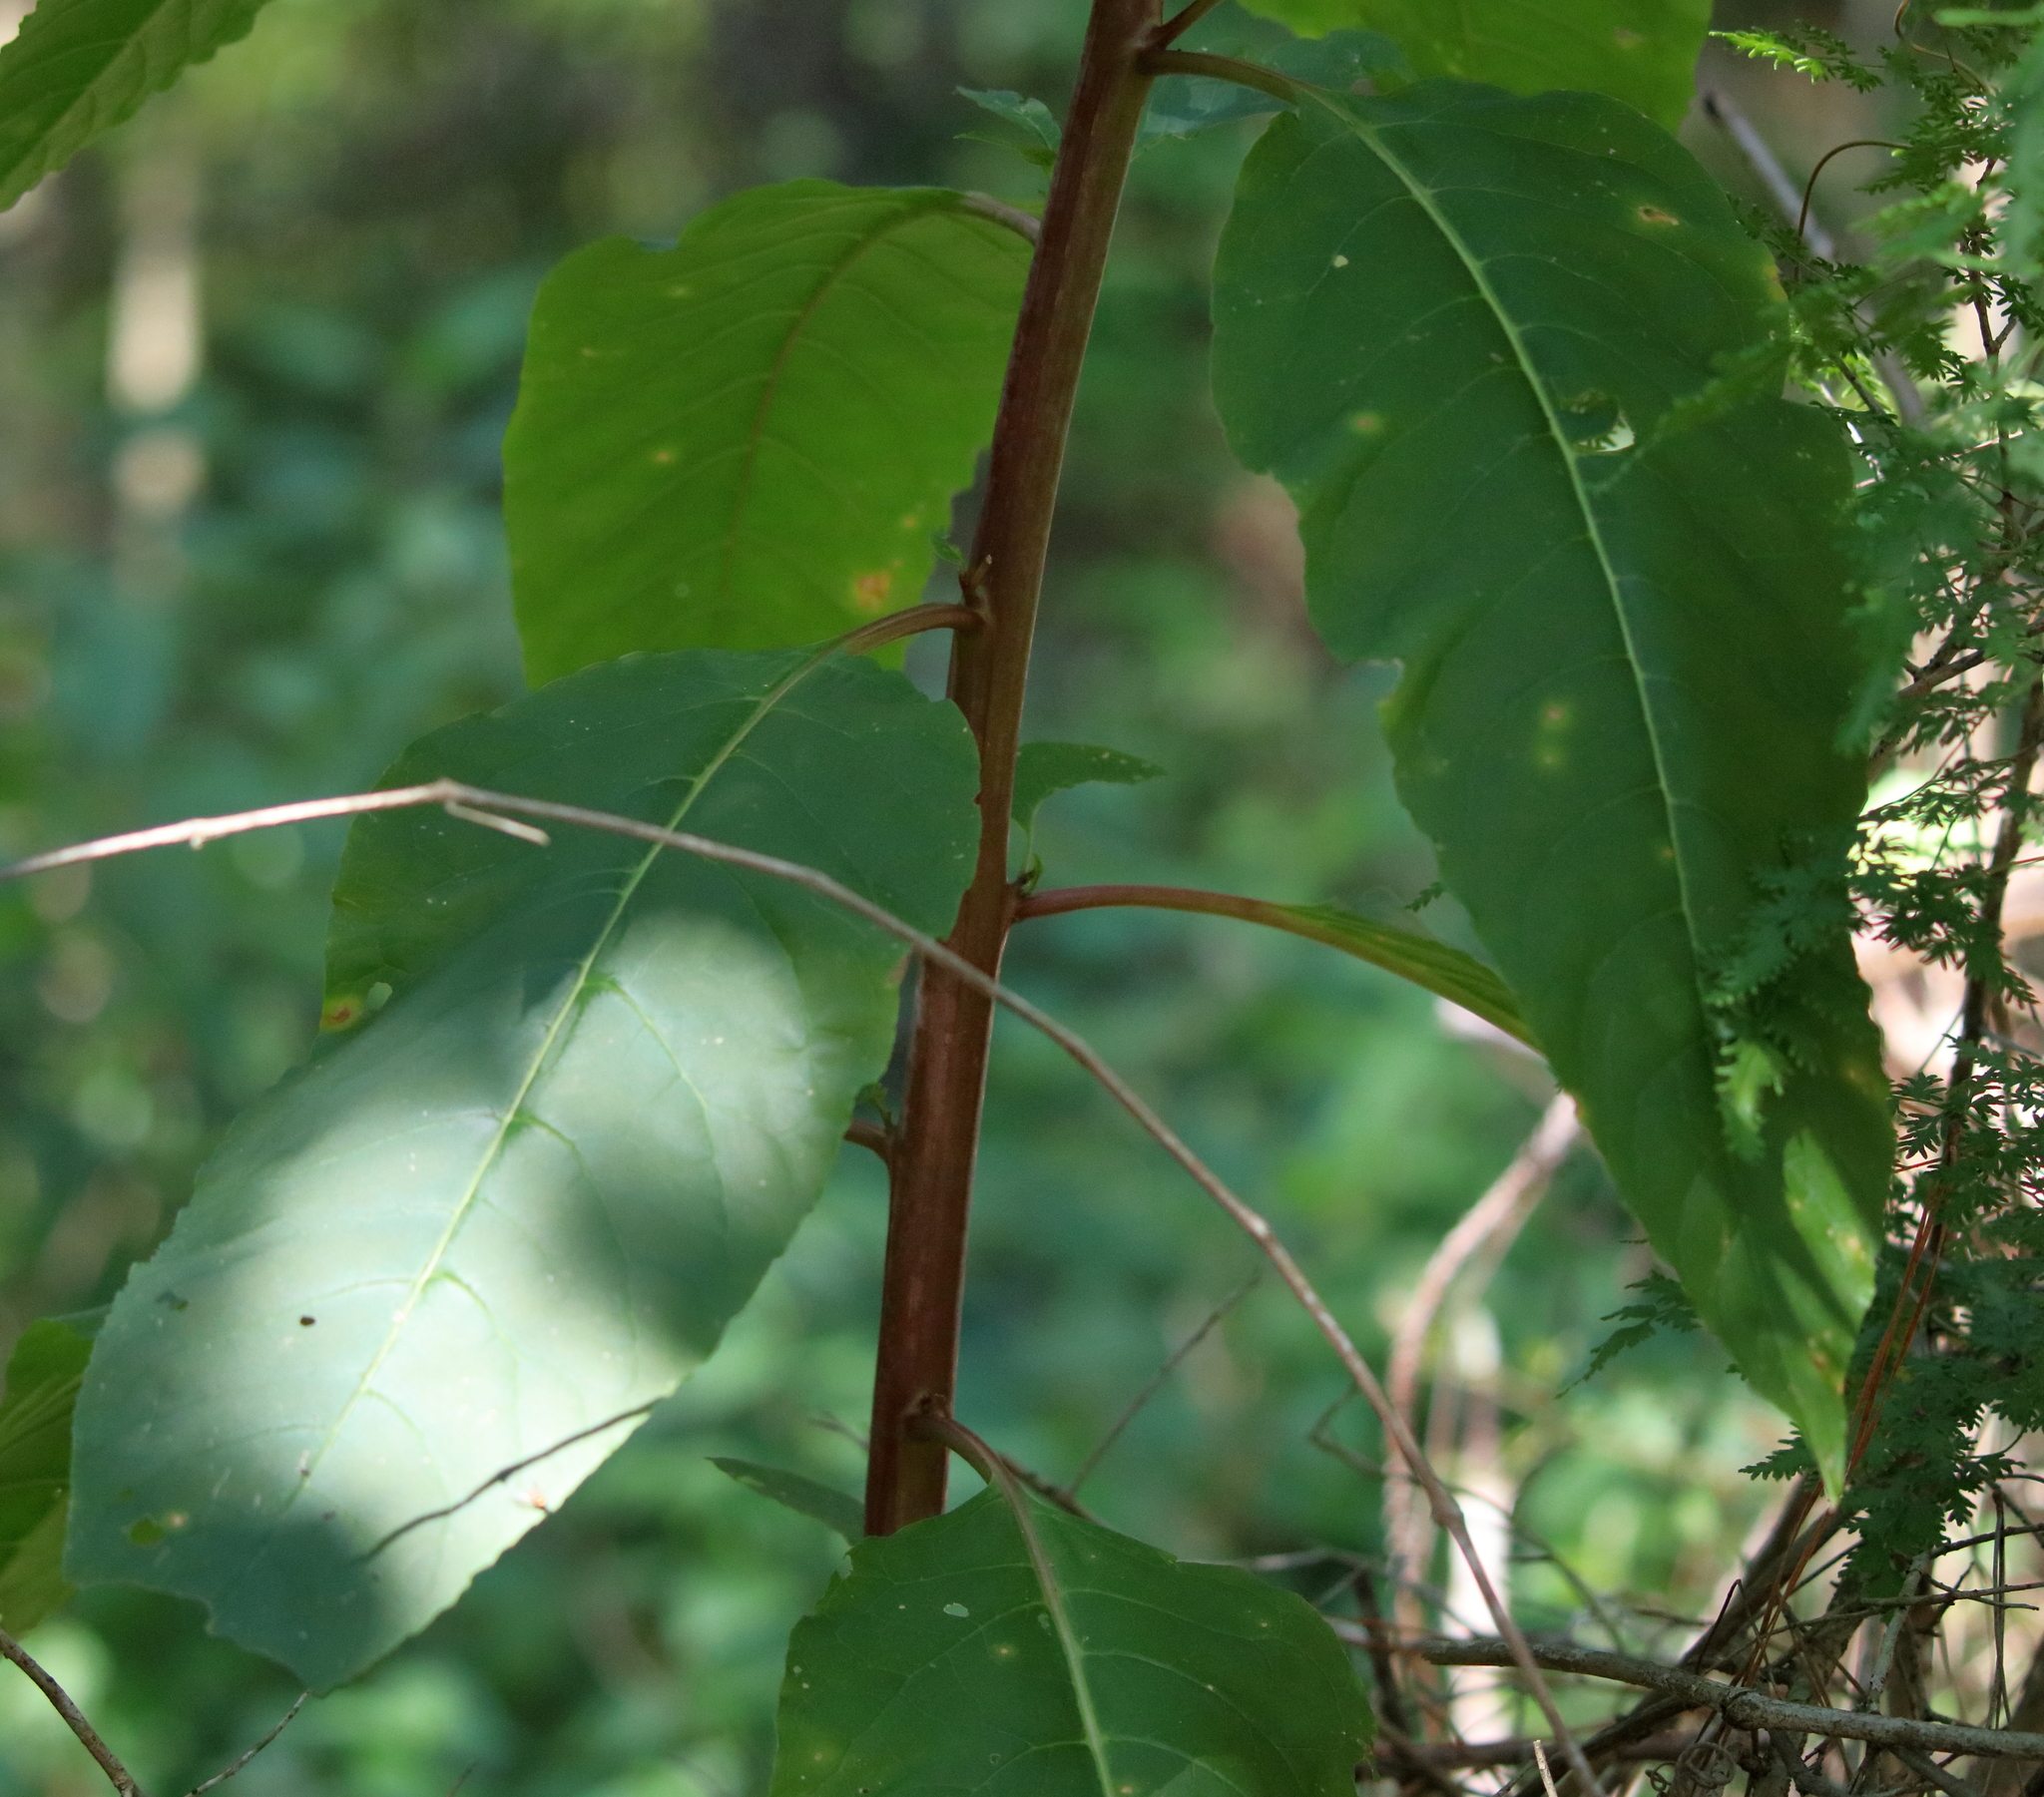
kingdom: Plantae
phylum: Tracheophyta
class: Magnoliopsida
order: Caryophyllales
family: Phytolaccaceae
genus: Phytolacca
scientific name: Phytolacca americana
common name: American pokeweed
